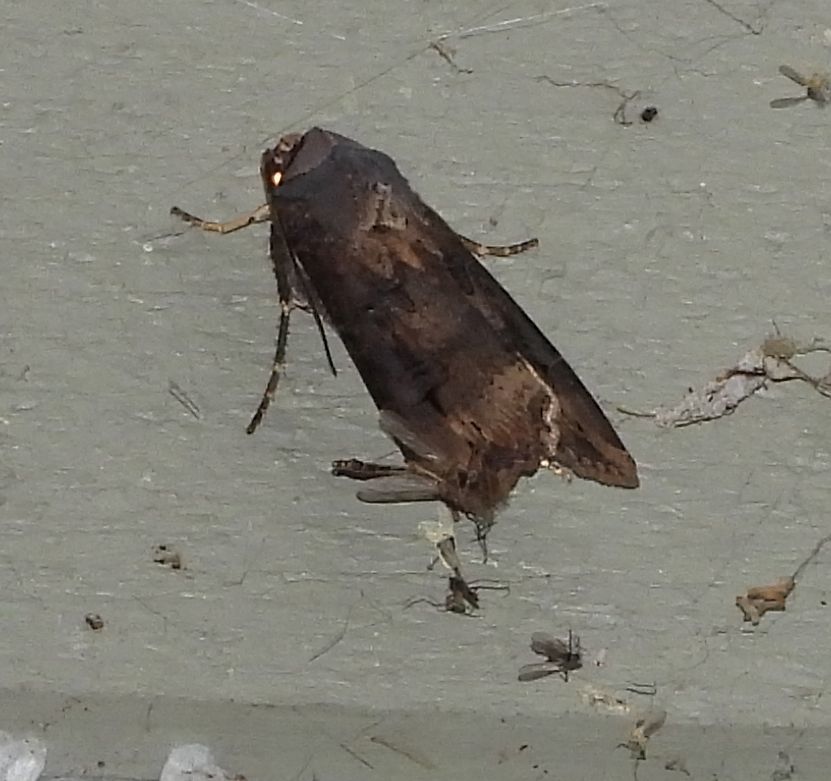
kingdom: Animalia
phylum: Arthropoda
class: Insecta
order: Lepidoptera
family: Noctuidae
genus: Agrotis
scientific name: Agrotis ipsilon
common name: Dark sword-grass
